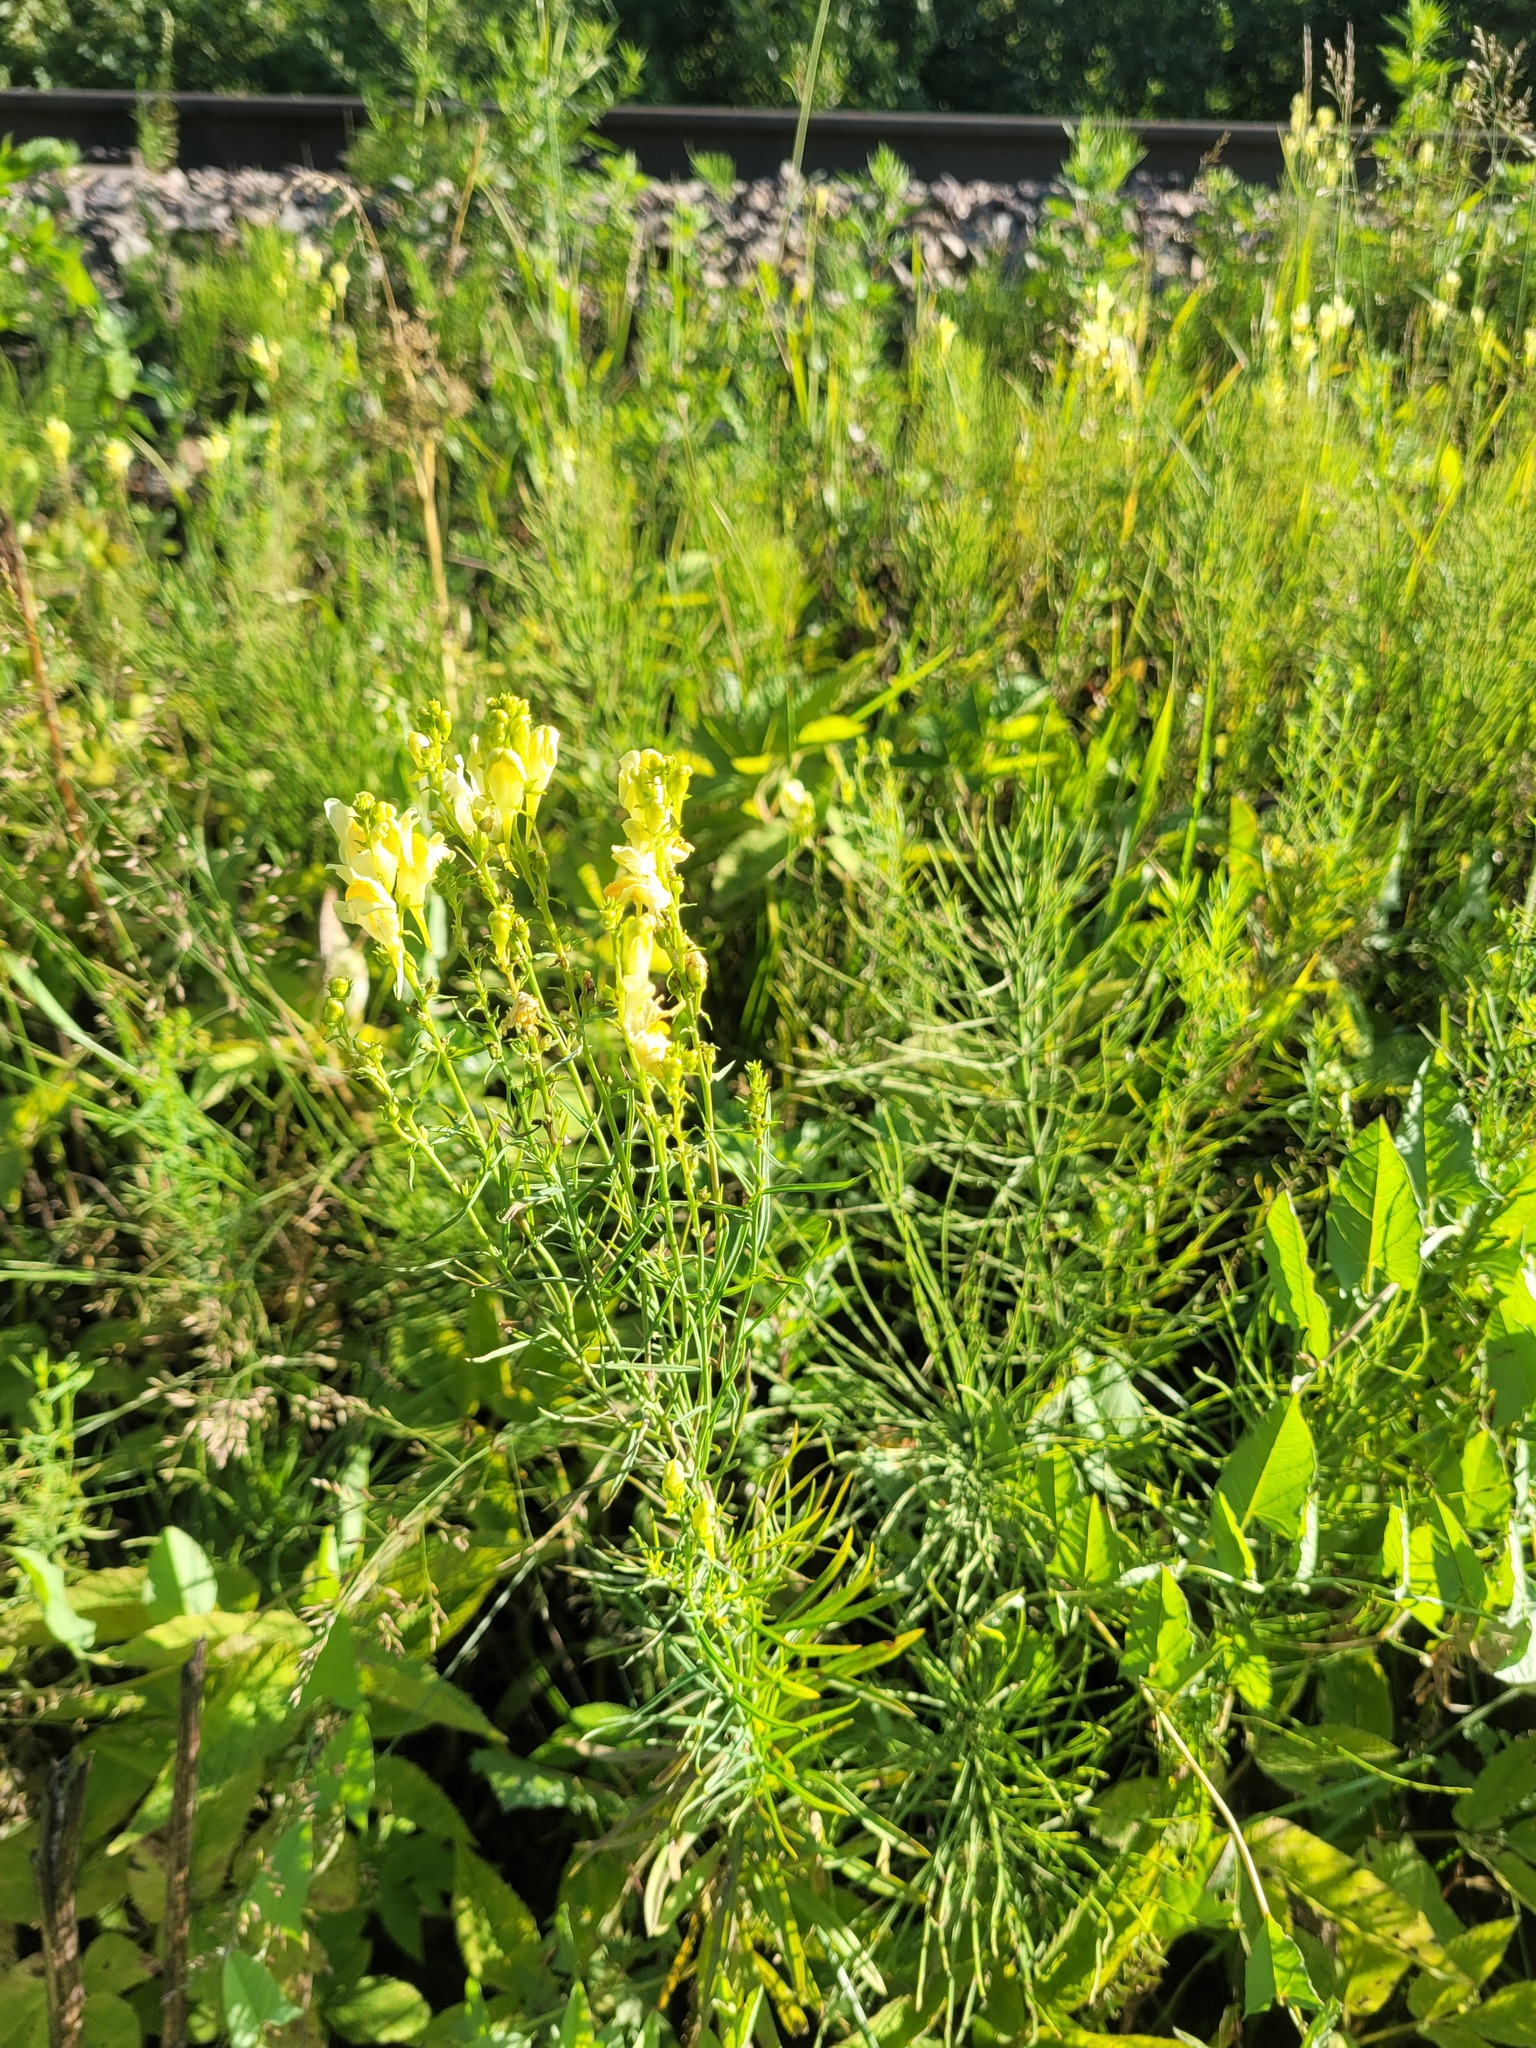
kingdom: Plantae
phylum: Tracheophyta
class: Magnoliopsida
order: Lamiales
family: Plantaginaceae
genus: Linaria
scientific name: Linaria vulgaris
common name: Butter and eggs
